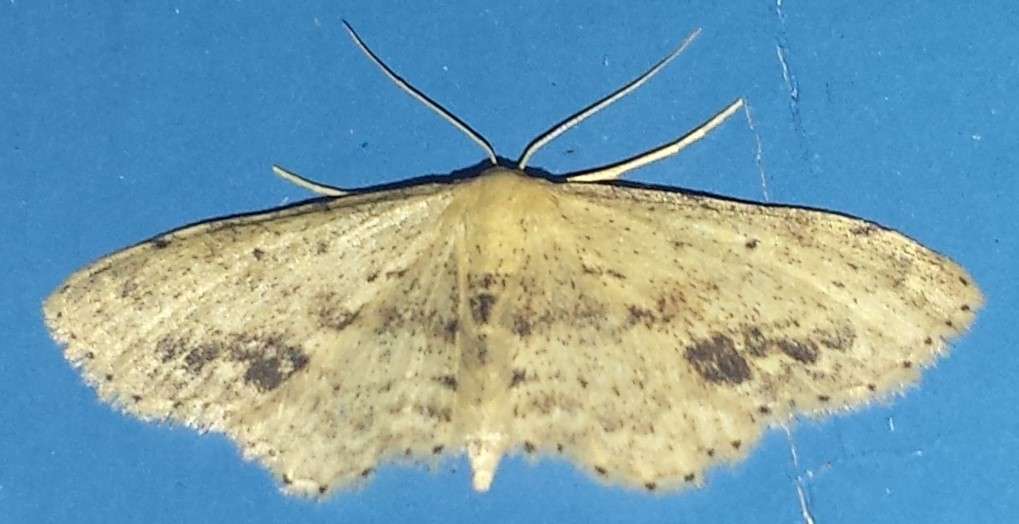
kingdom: Animalia
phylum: Arthropoda
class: Insecta
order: Lepidoptera
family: Geometridae
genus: Idaea
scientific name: Idaea dimidiata
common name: Single-dotted wave
